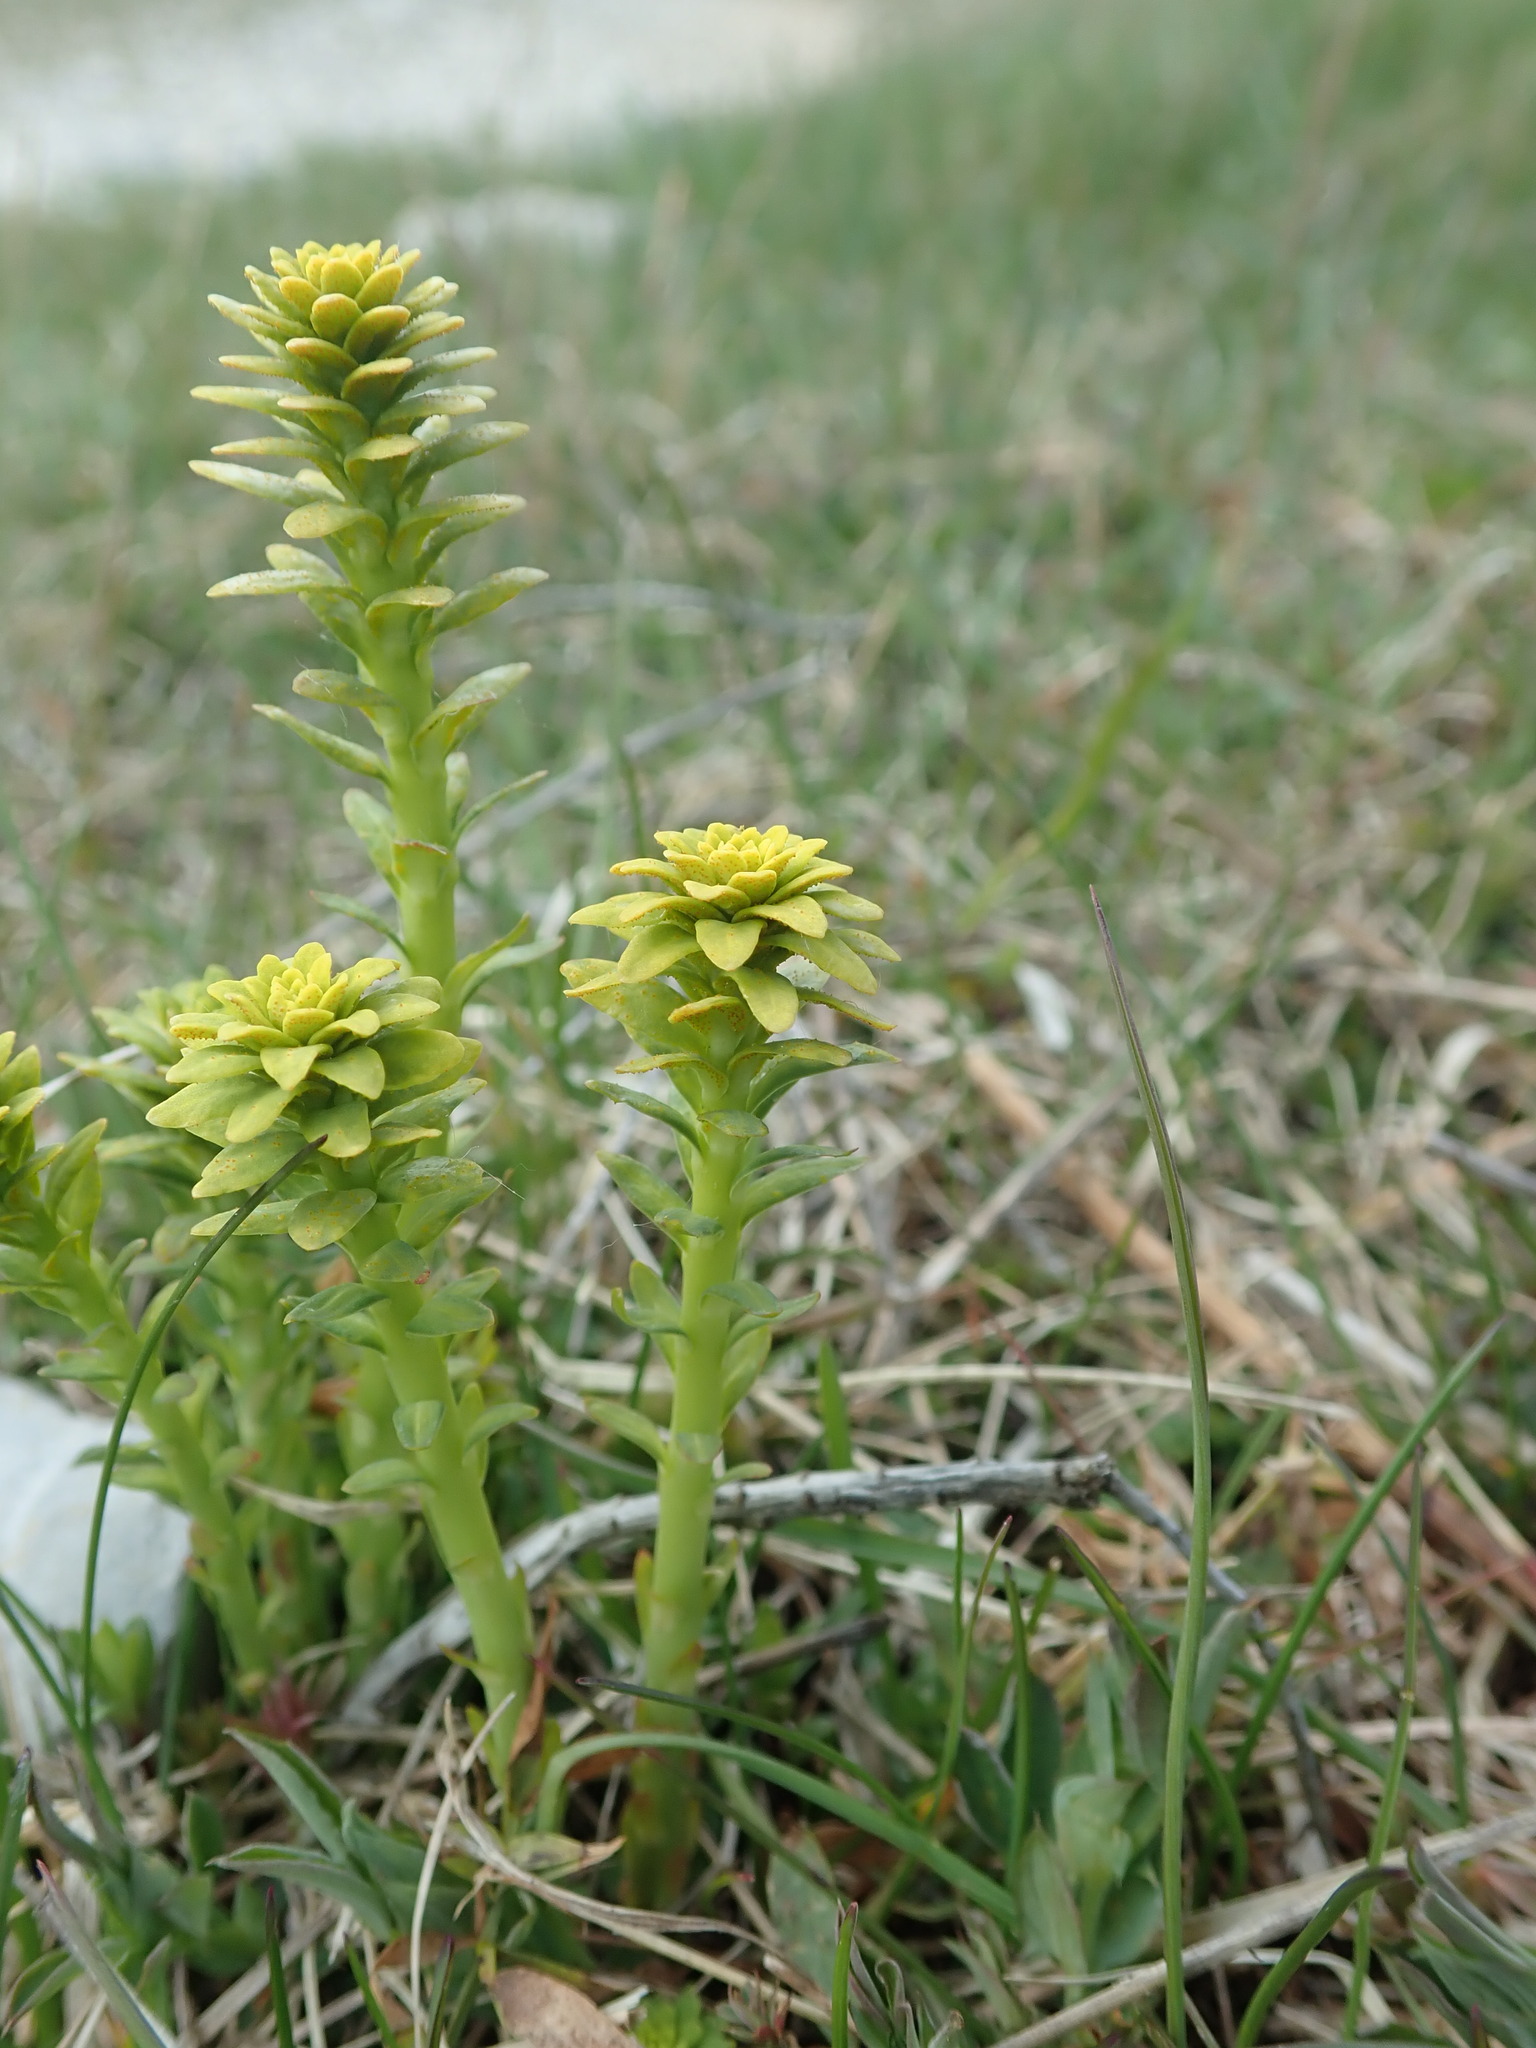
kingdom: Plantae
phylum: Tracheophyta
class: Magnoliopsida
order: Malpighiales
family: Euphorbiaceae
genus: Euphorbia
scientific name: Euphorbia cyparissias
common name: Cypress spurge
